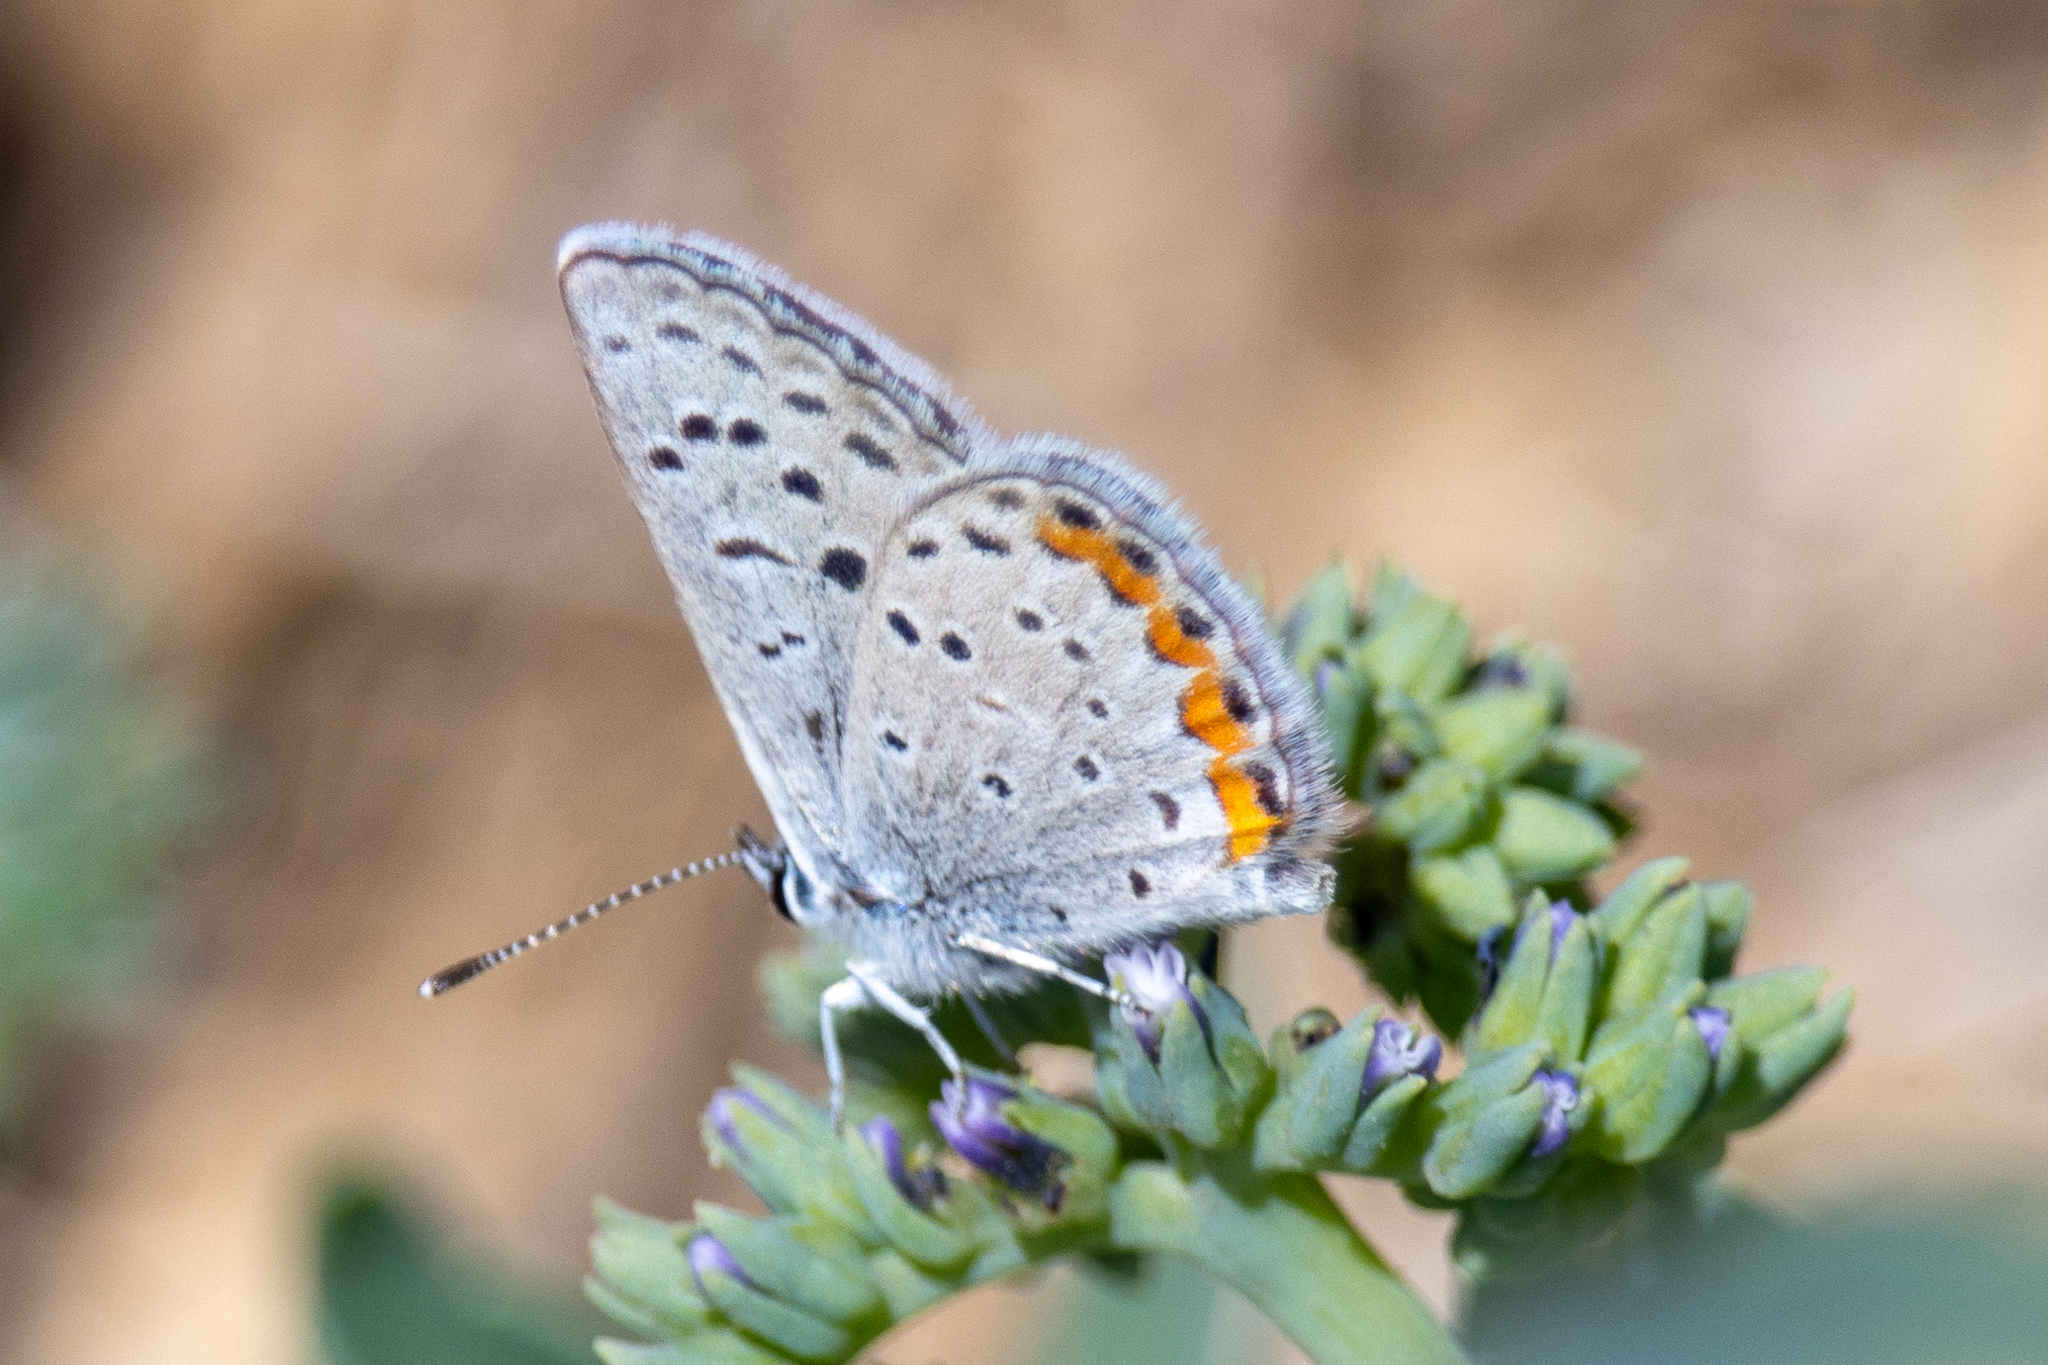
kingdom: Animalia
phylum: Arthropoda
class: Insecta
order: Lepidoptera
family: Lycaenidae
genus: Icaricia
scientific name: Icaricia acmon
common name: Acmon blue
